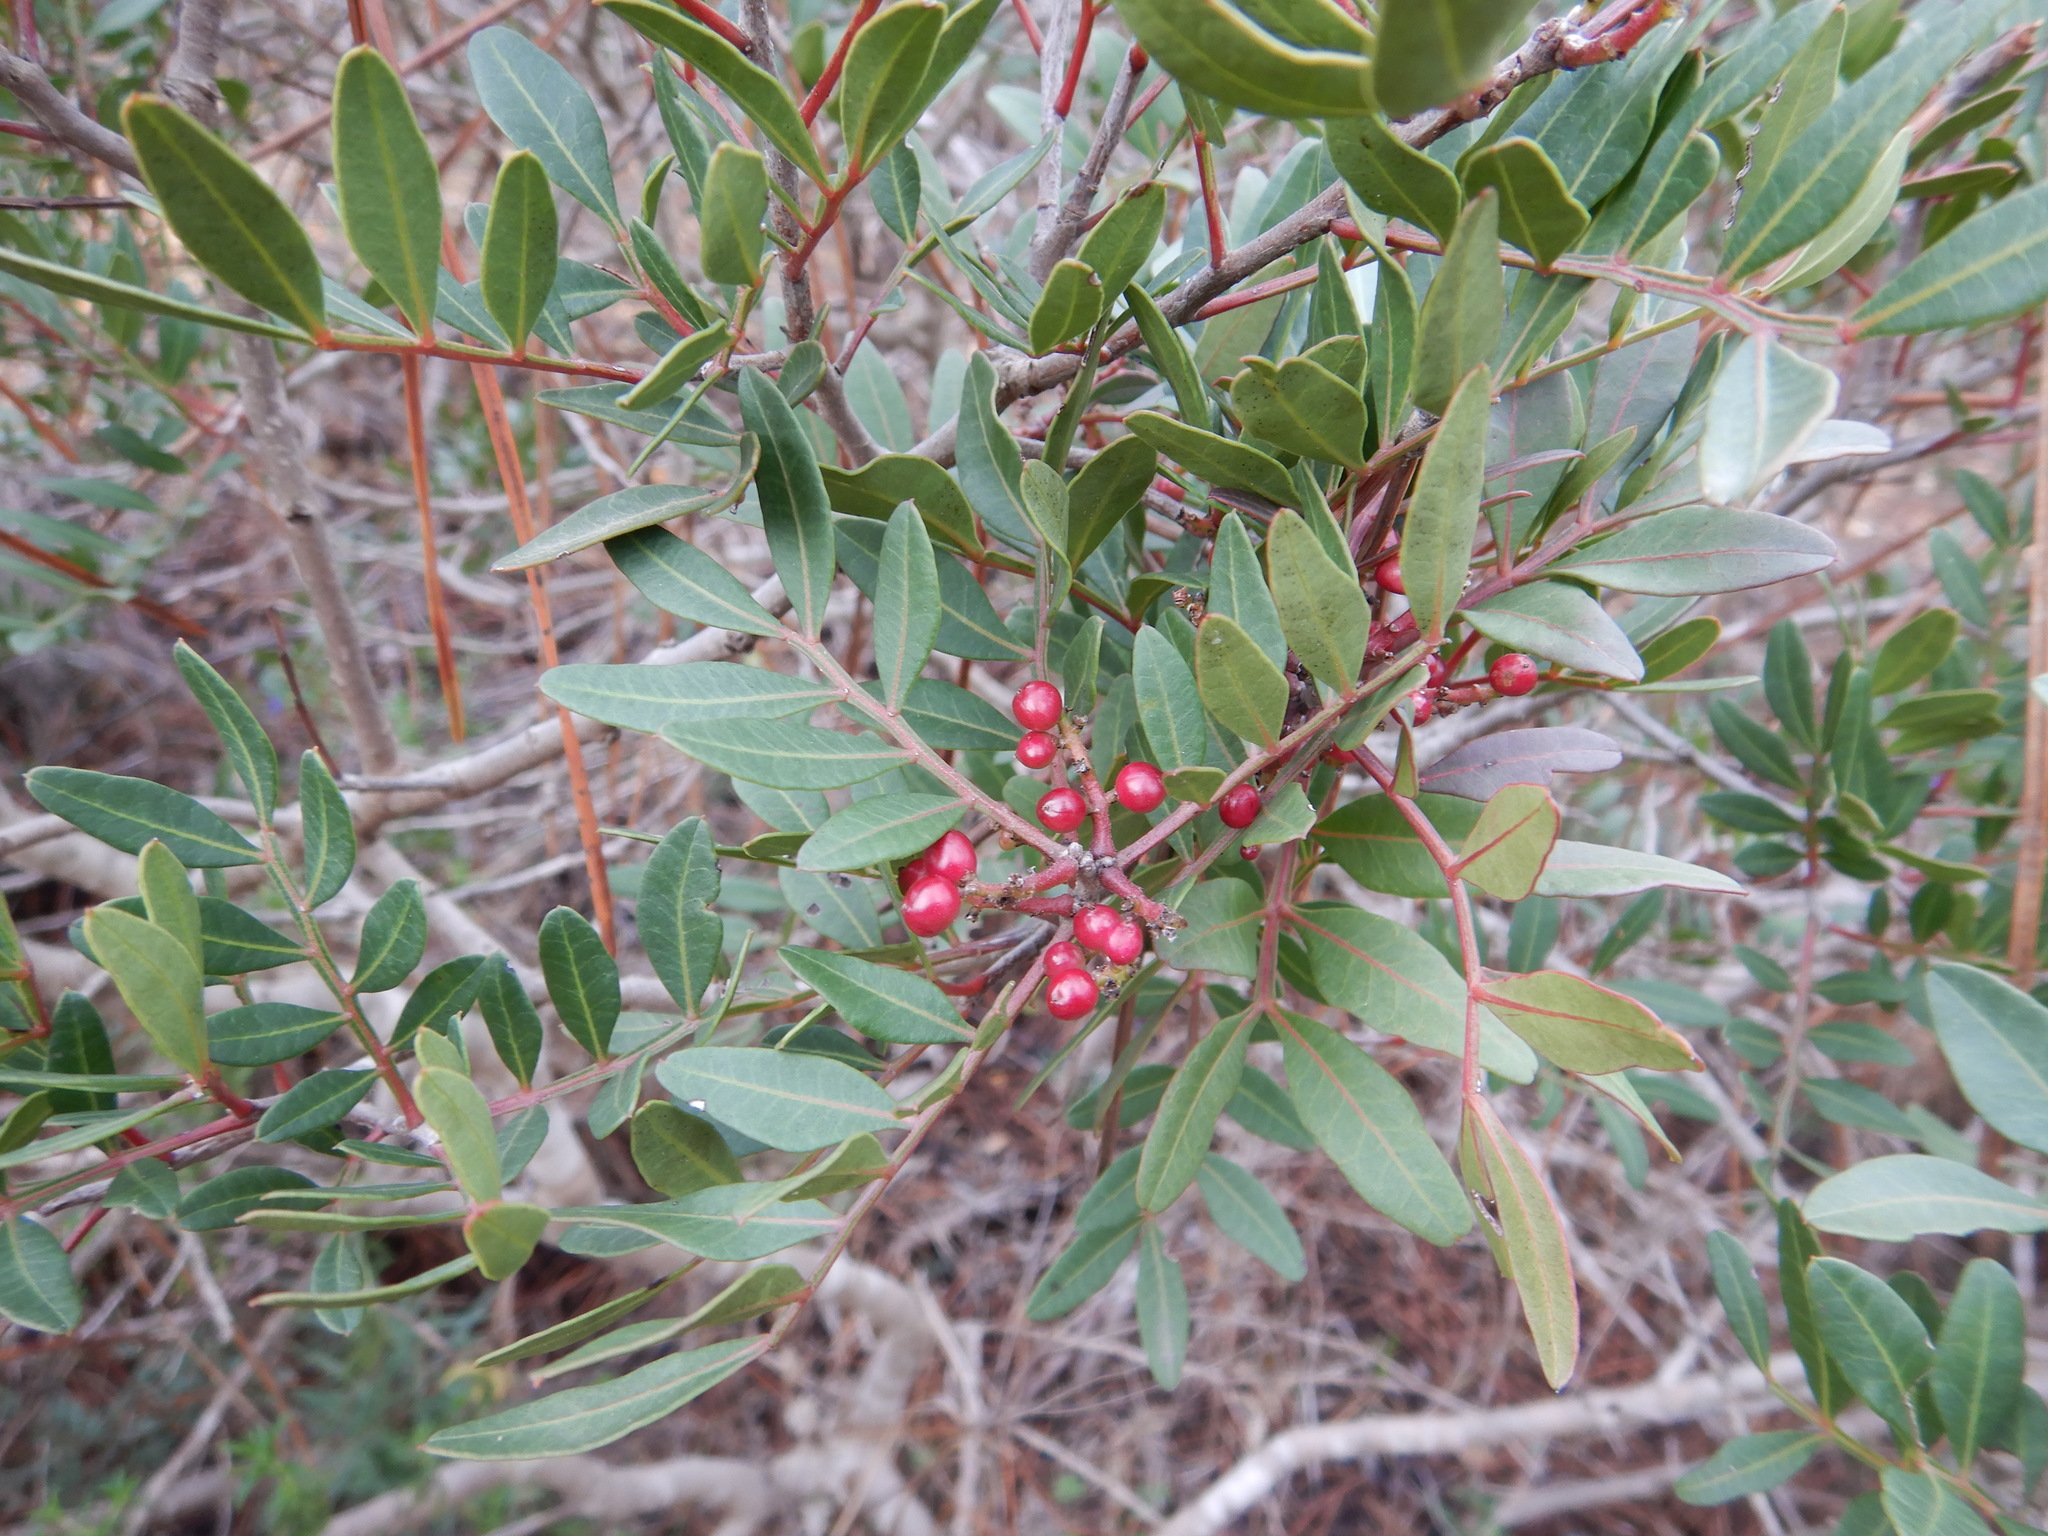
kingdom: Plantae
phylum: Tracheophyta
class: Magnoliopsida
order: Sapindales
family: Anacardiaceae
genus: Pistacia
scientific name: Pistacia lentiscus
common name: Lentisk
